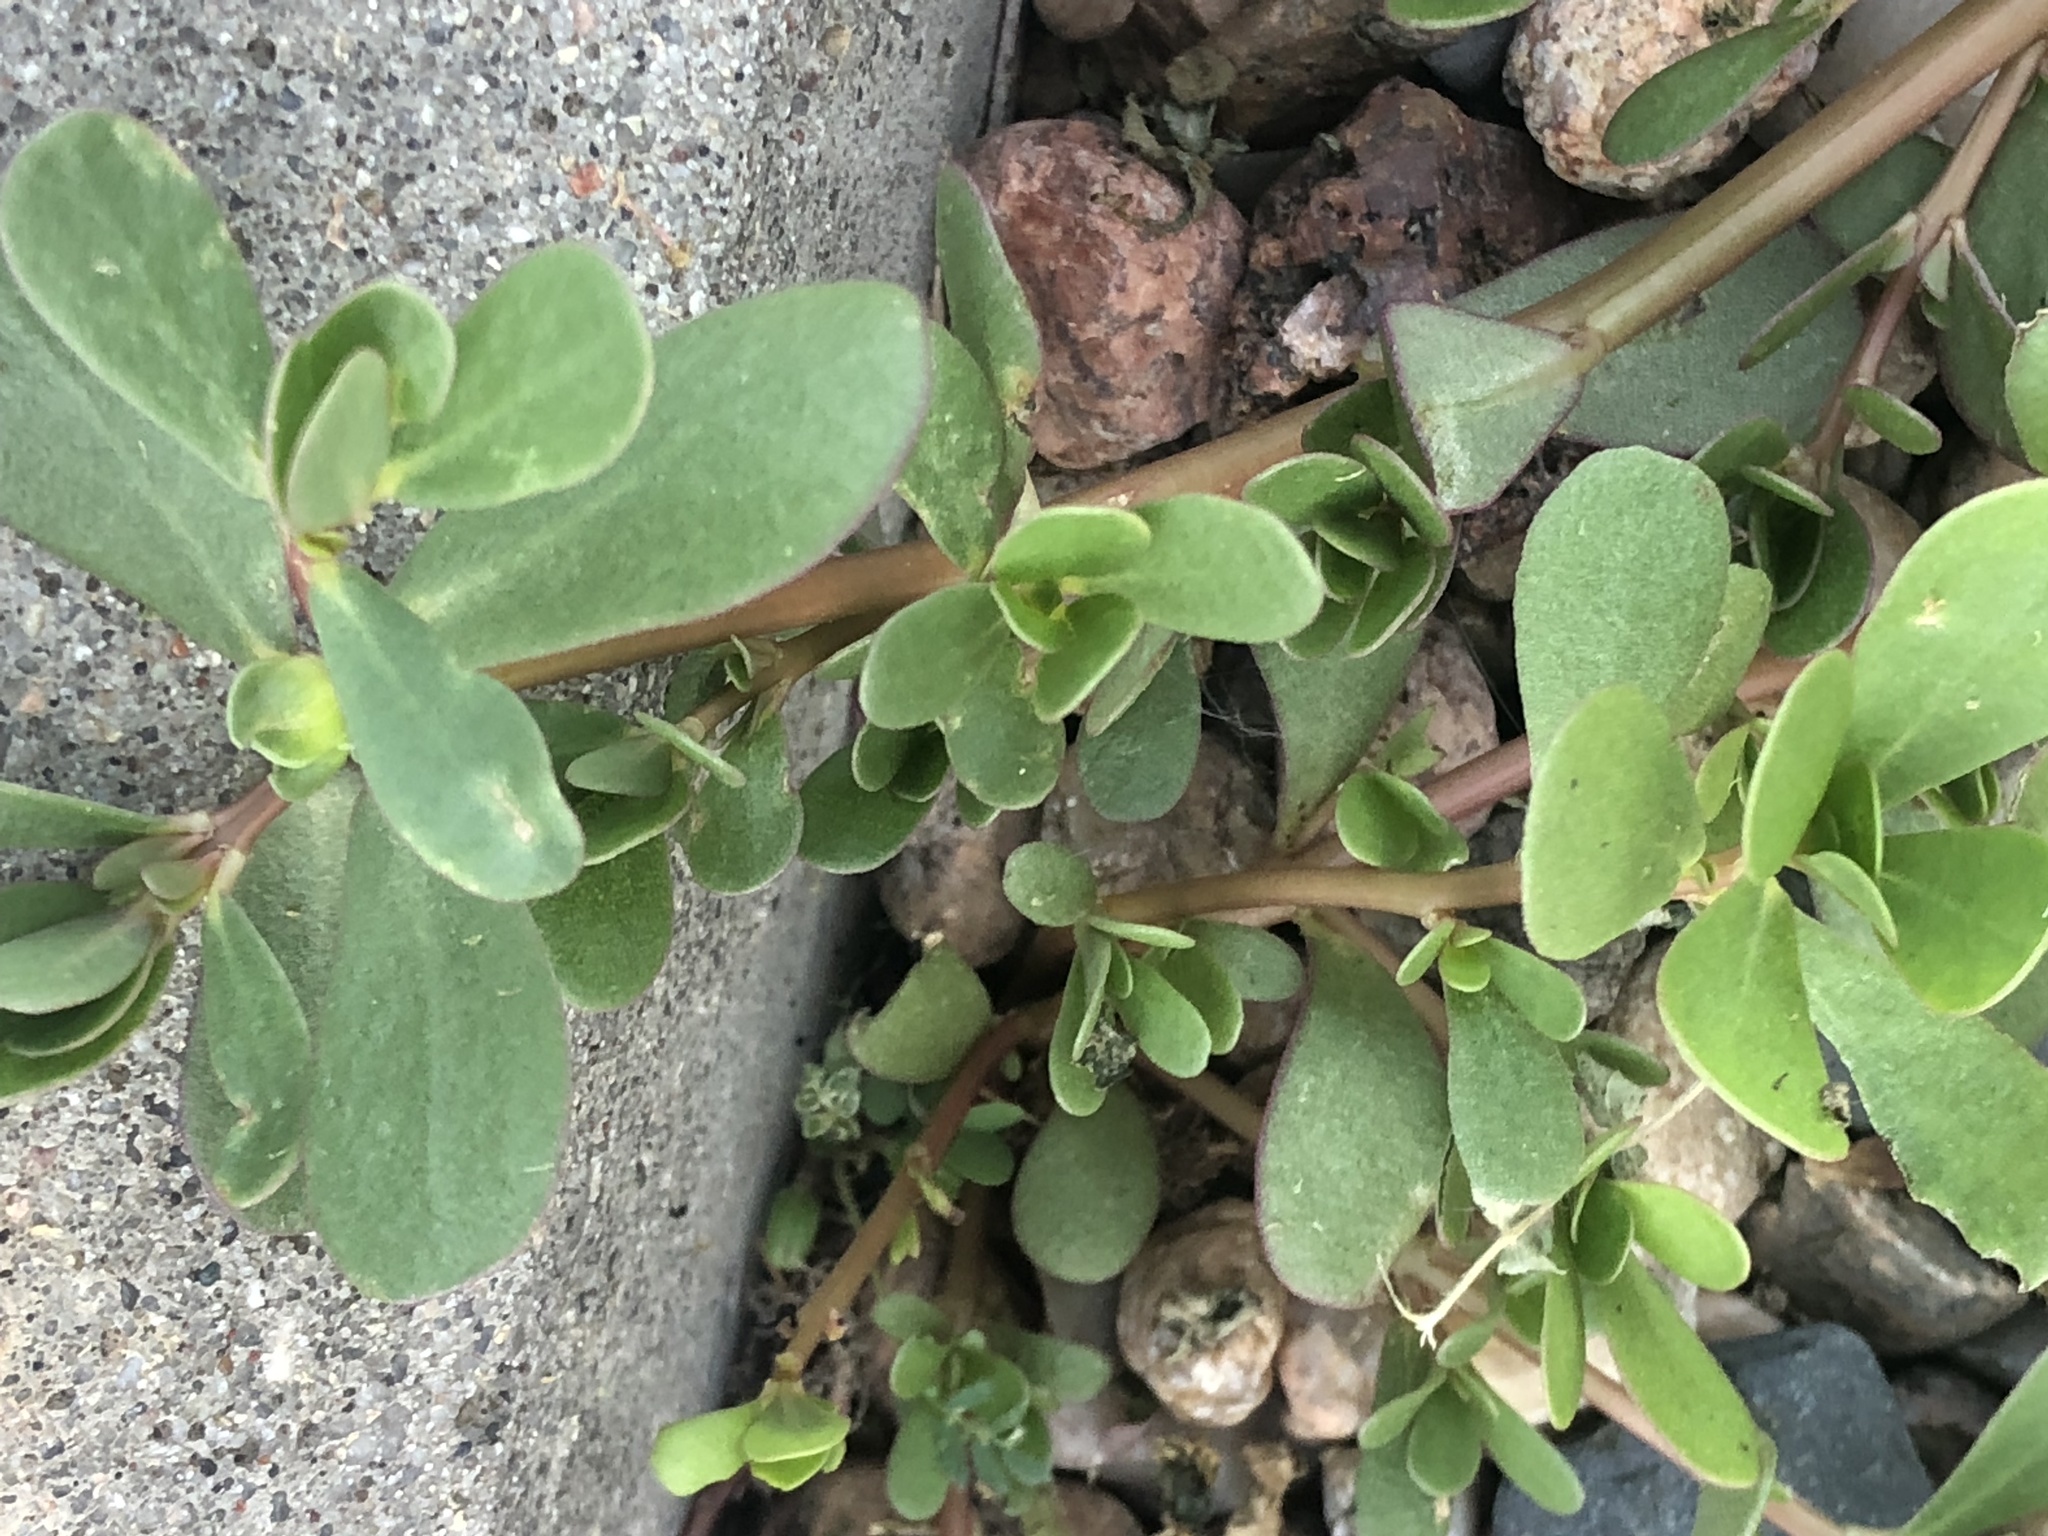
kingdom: Plantae
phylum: Tracheophyta
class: Magnoliopsida
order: Caryophyllales
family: Portulacaceae
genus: Portulaca
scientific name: Portulaca oleracea
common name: Common purslane
